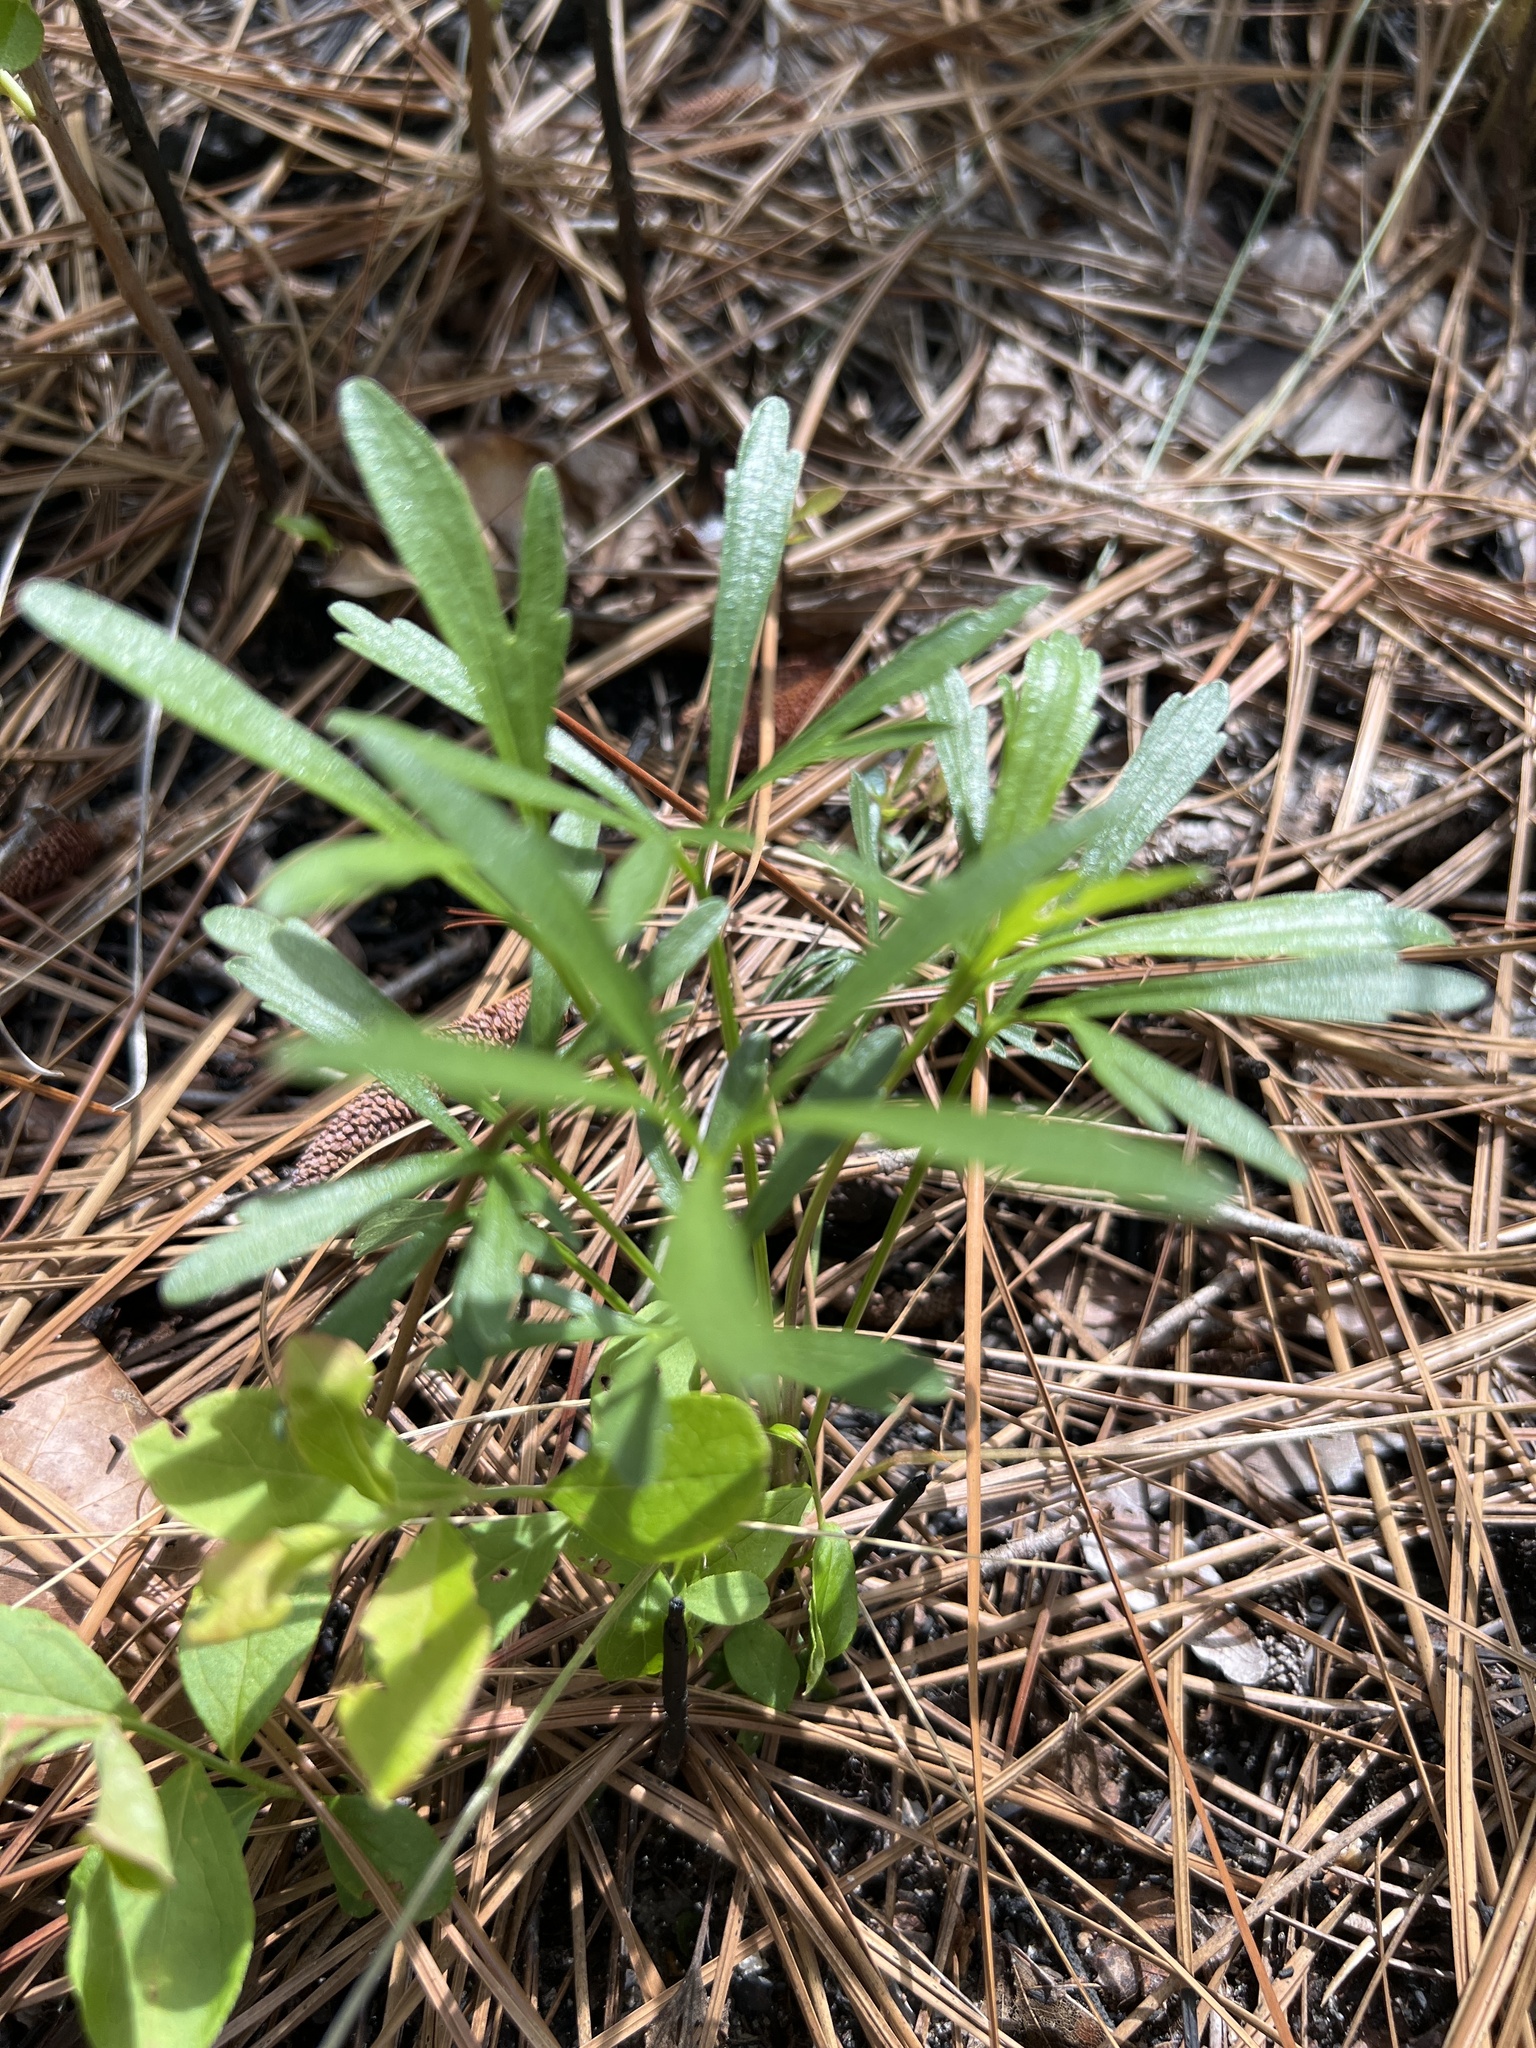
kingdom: Plantae
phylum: Tracheophyta
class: Magnoliopsida
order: Malpighiales
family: Violaceae
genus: Viola
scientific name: Viola pedata
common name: Pansy violet
